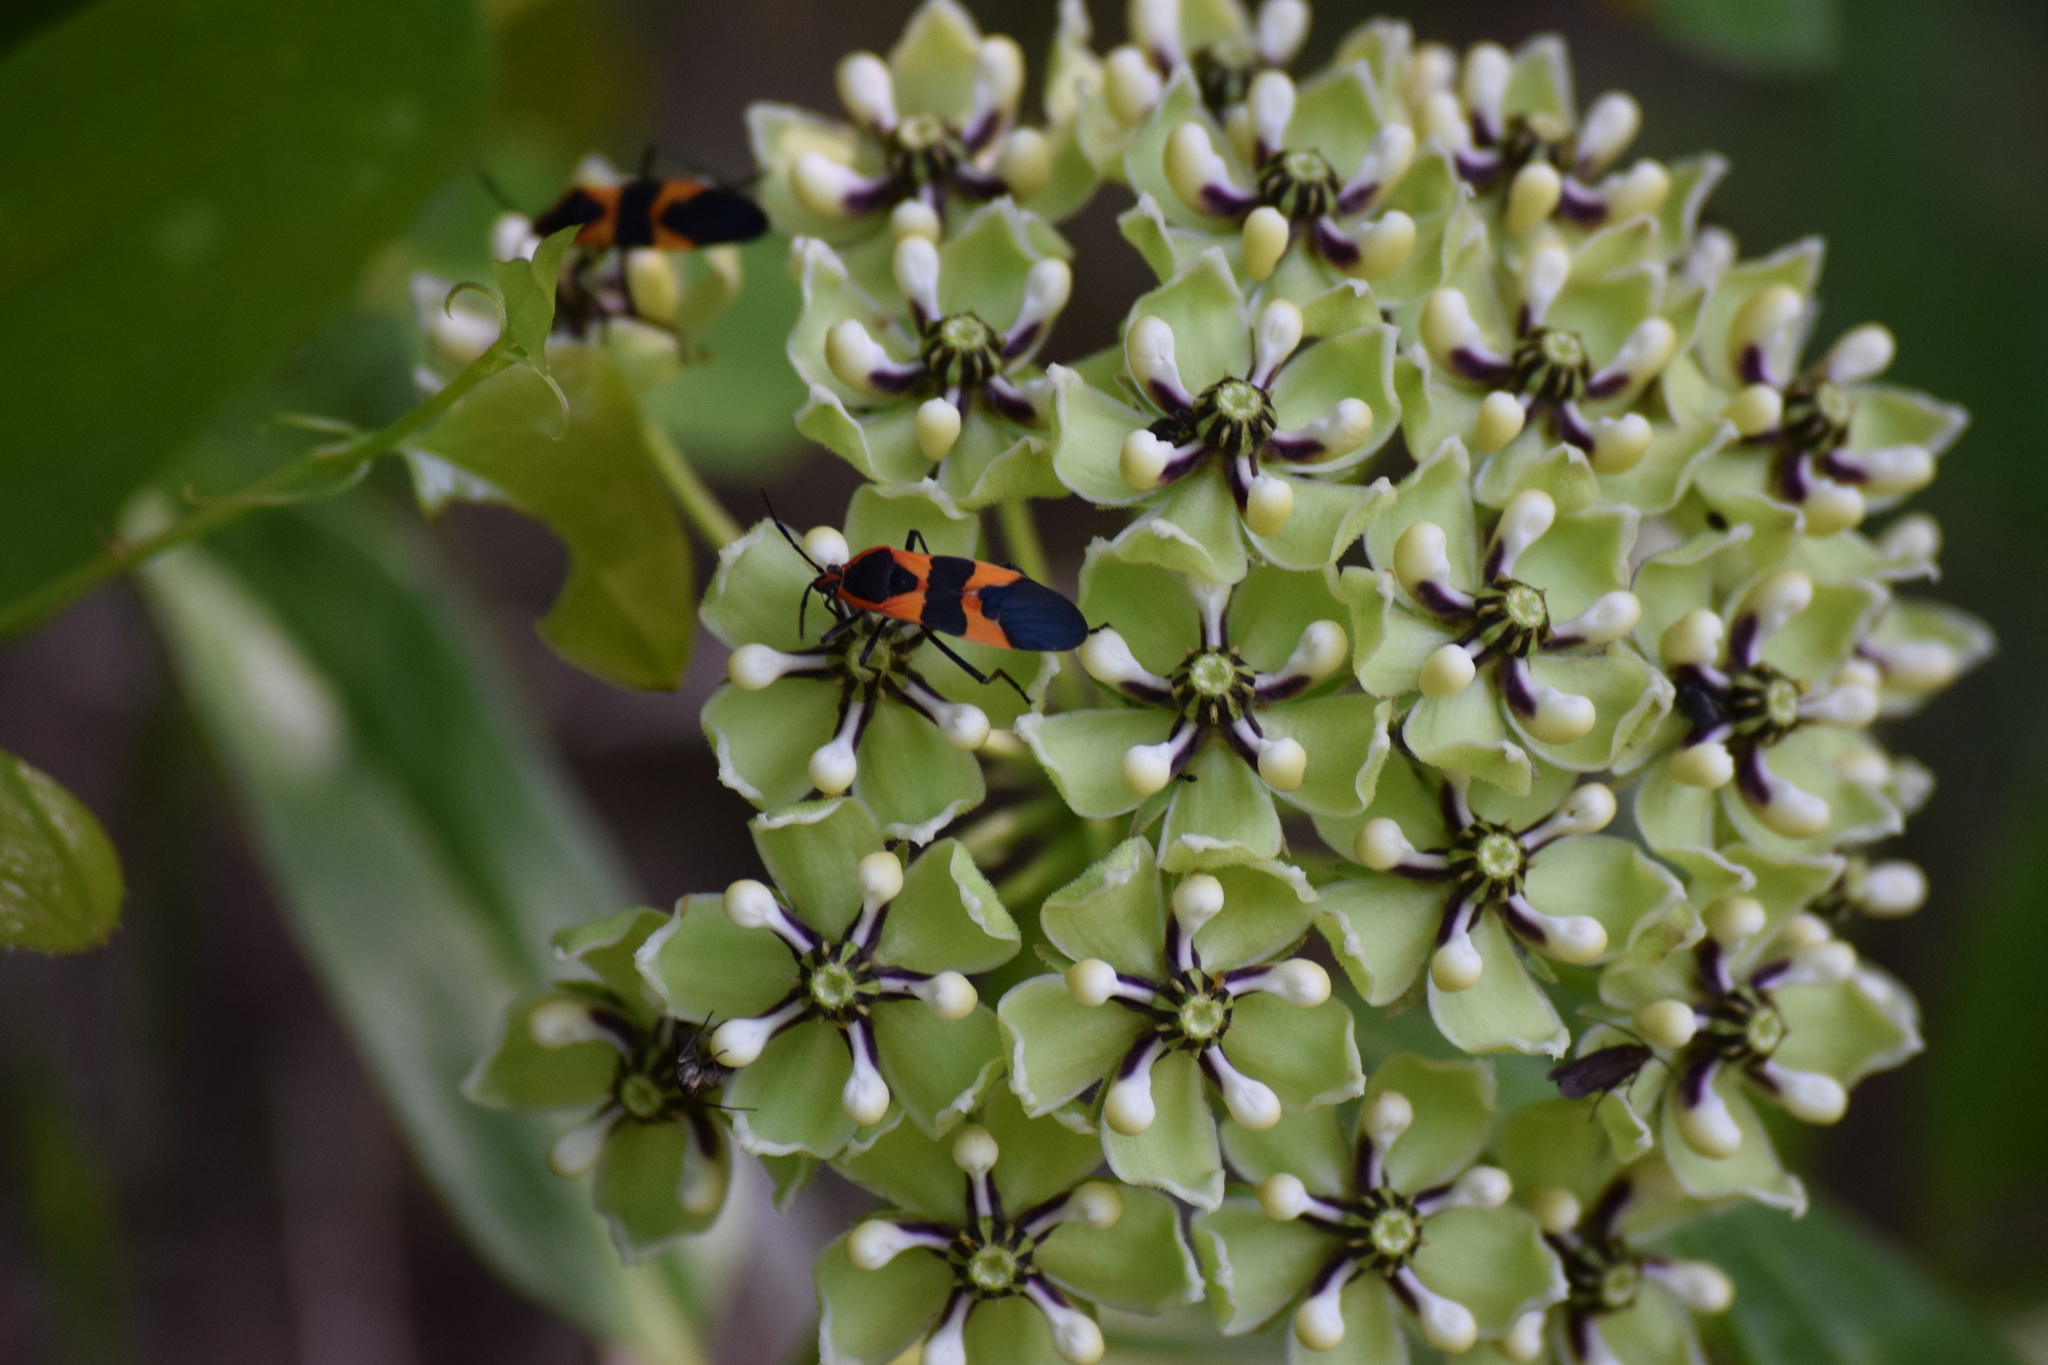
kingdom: Animalia
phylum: Arthropoda
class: Insecta
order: Hemiptera
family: Lygaeidae
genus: Oncopeltus
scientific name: Oncopeltus fasciatus
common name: Large milkweed bug
